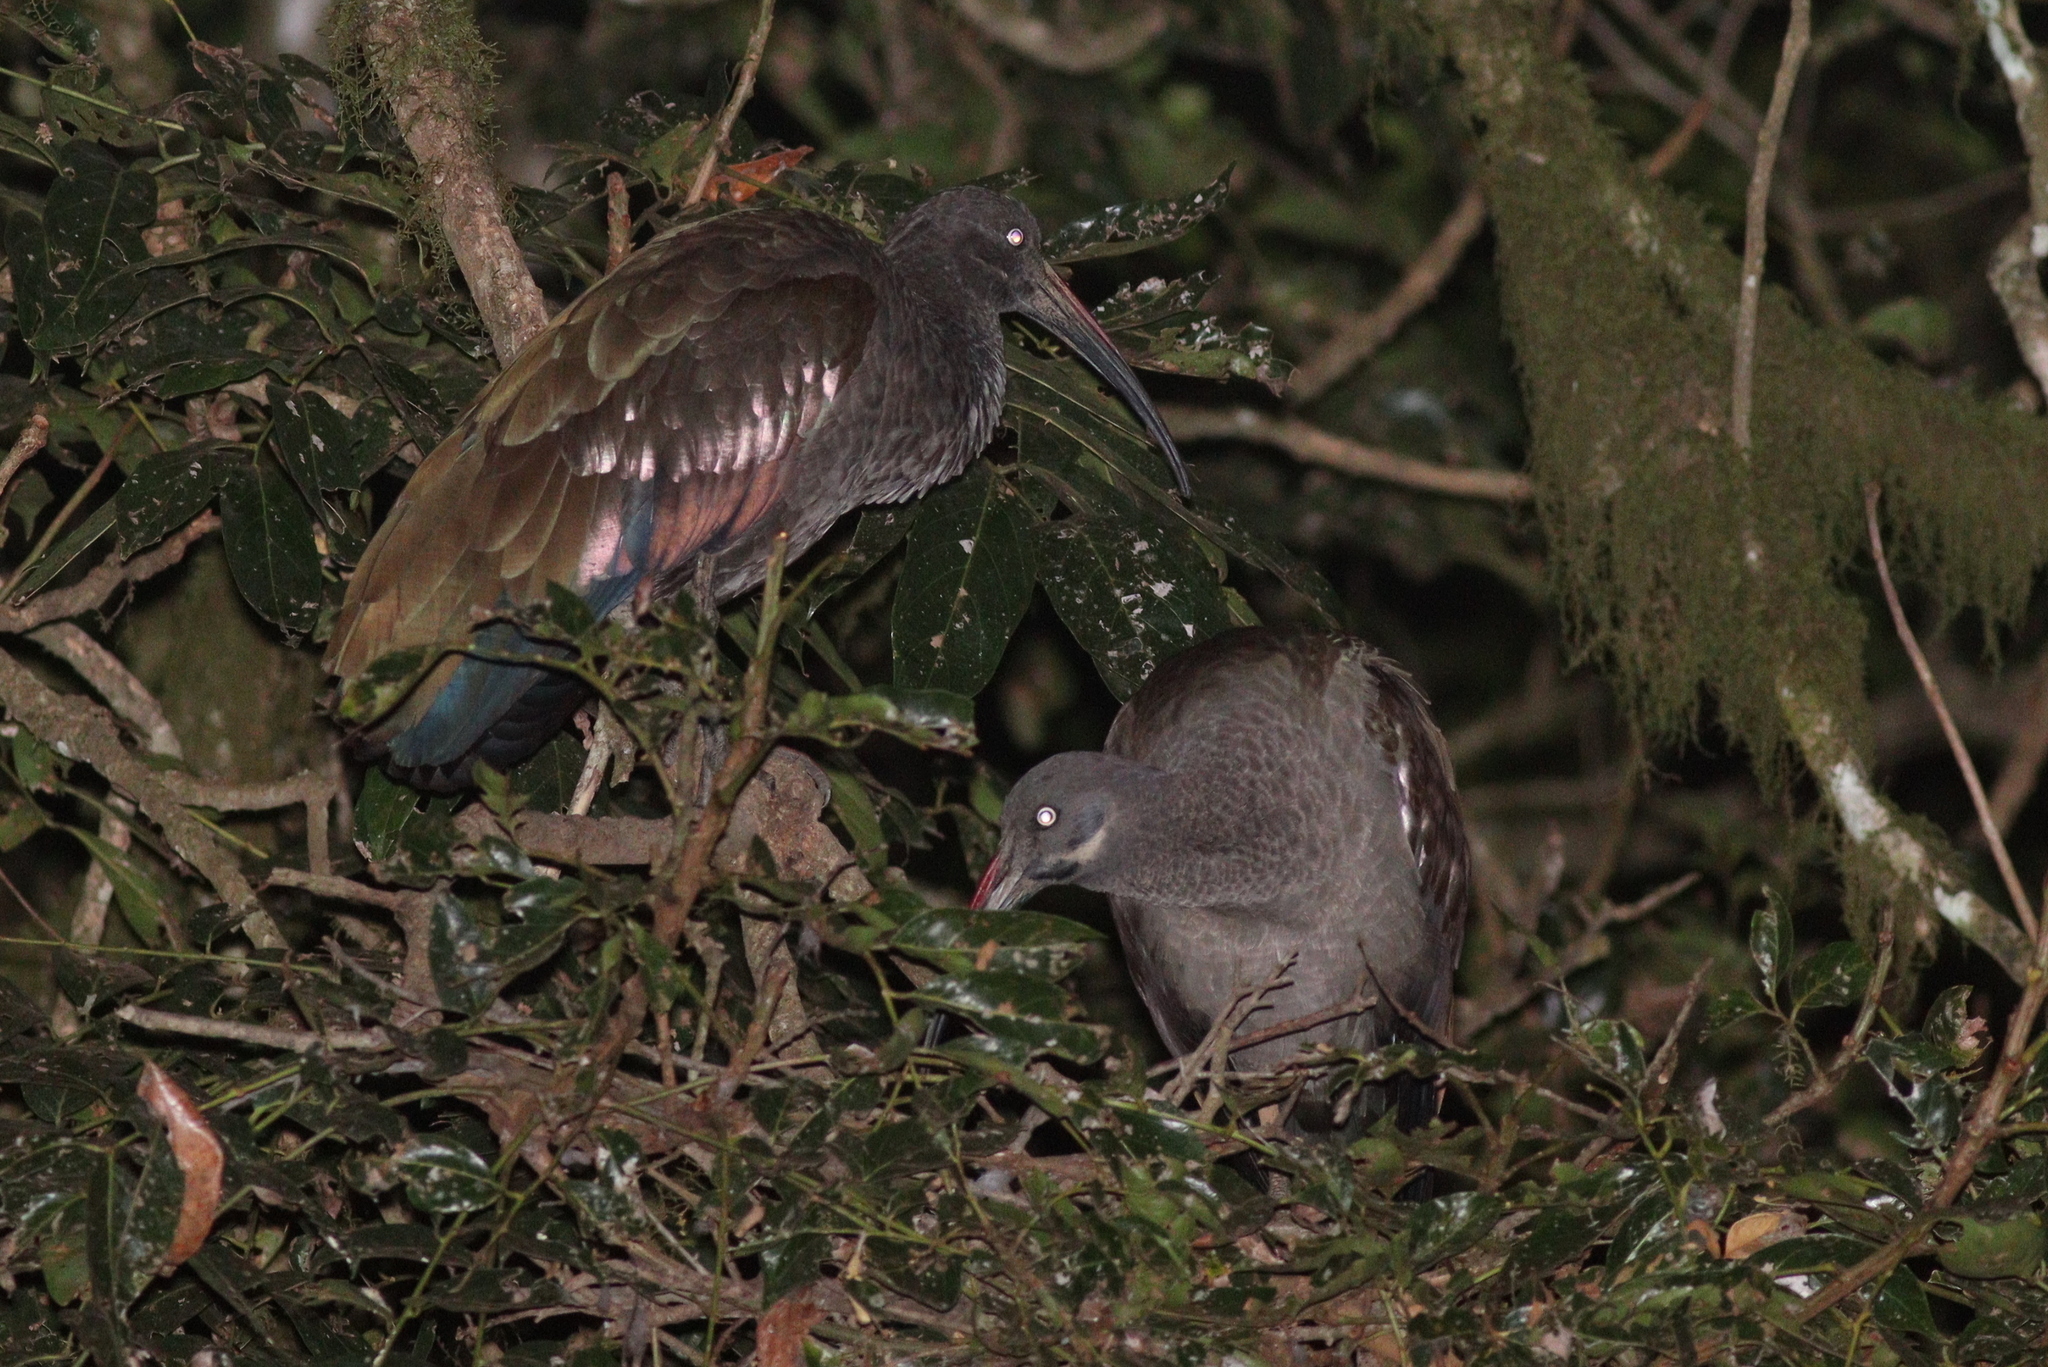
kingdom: Animalia
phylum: Chordata
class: Aves
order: Pelecaniformes
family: Threskiornithidae
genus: Bostrychia
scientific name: Bostrychia hagedash
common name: Hadada ibis
